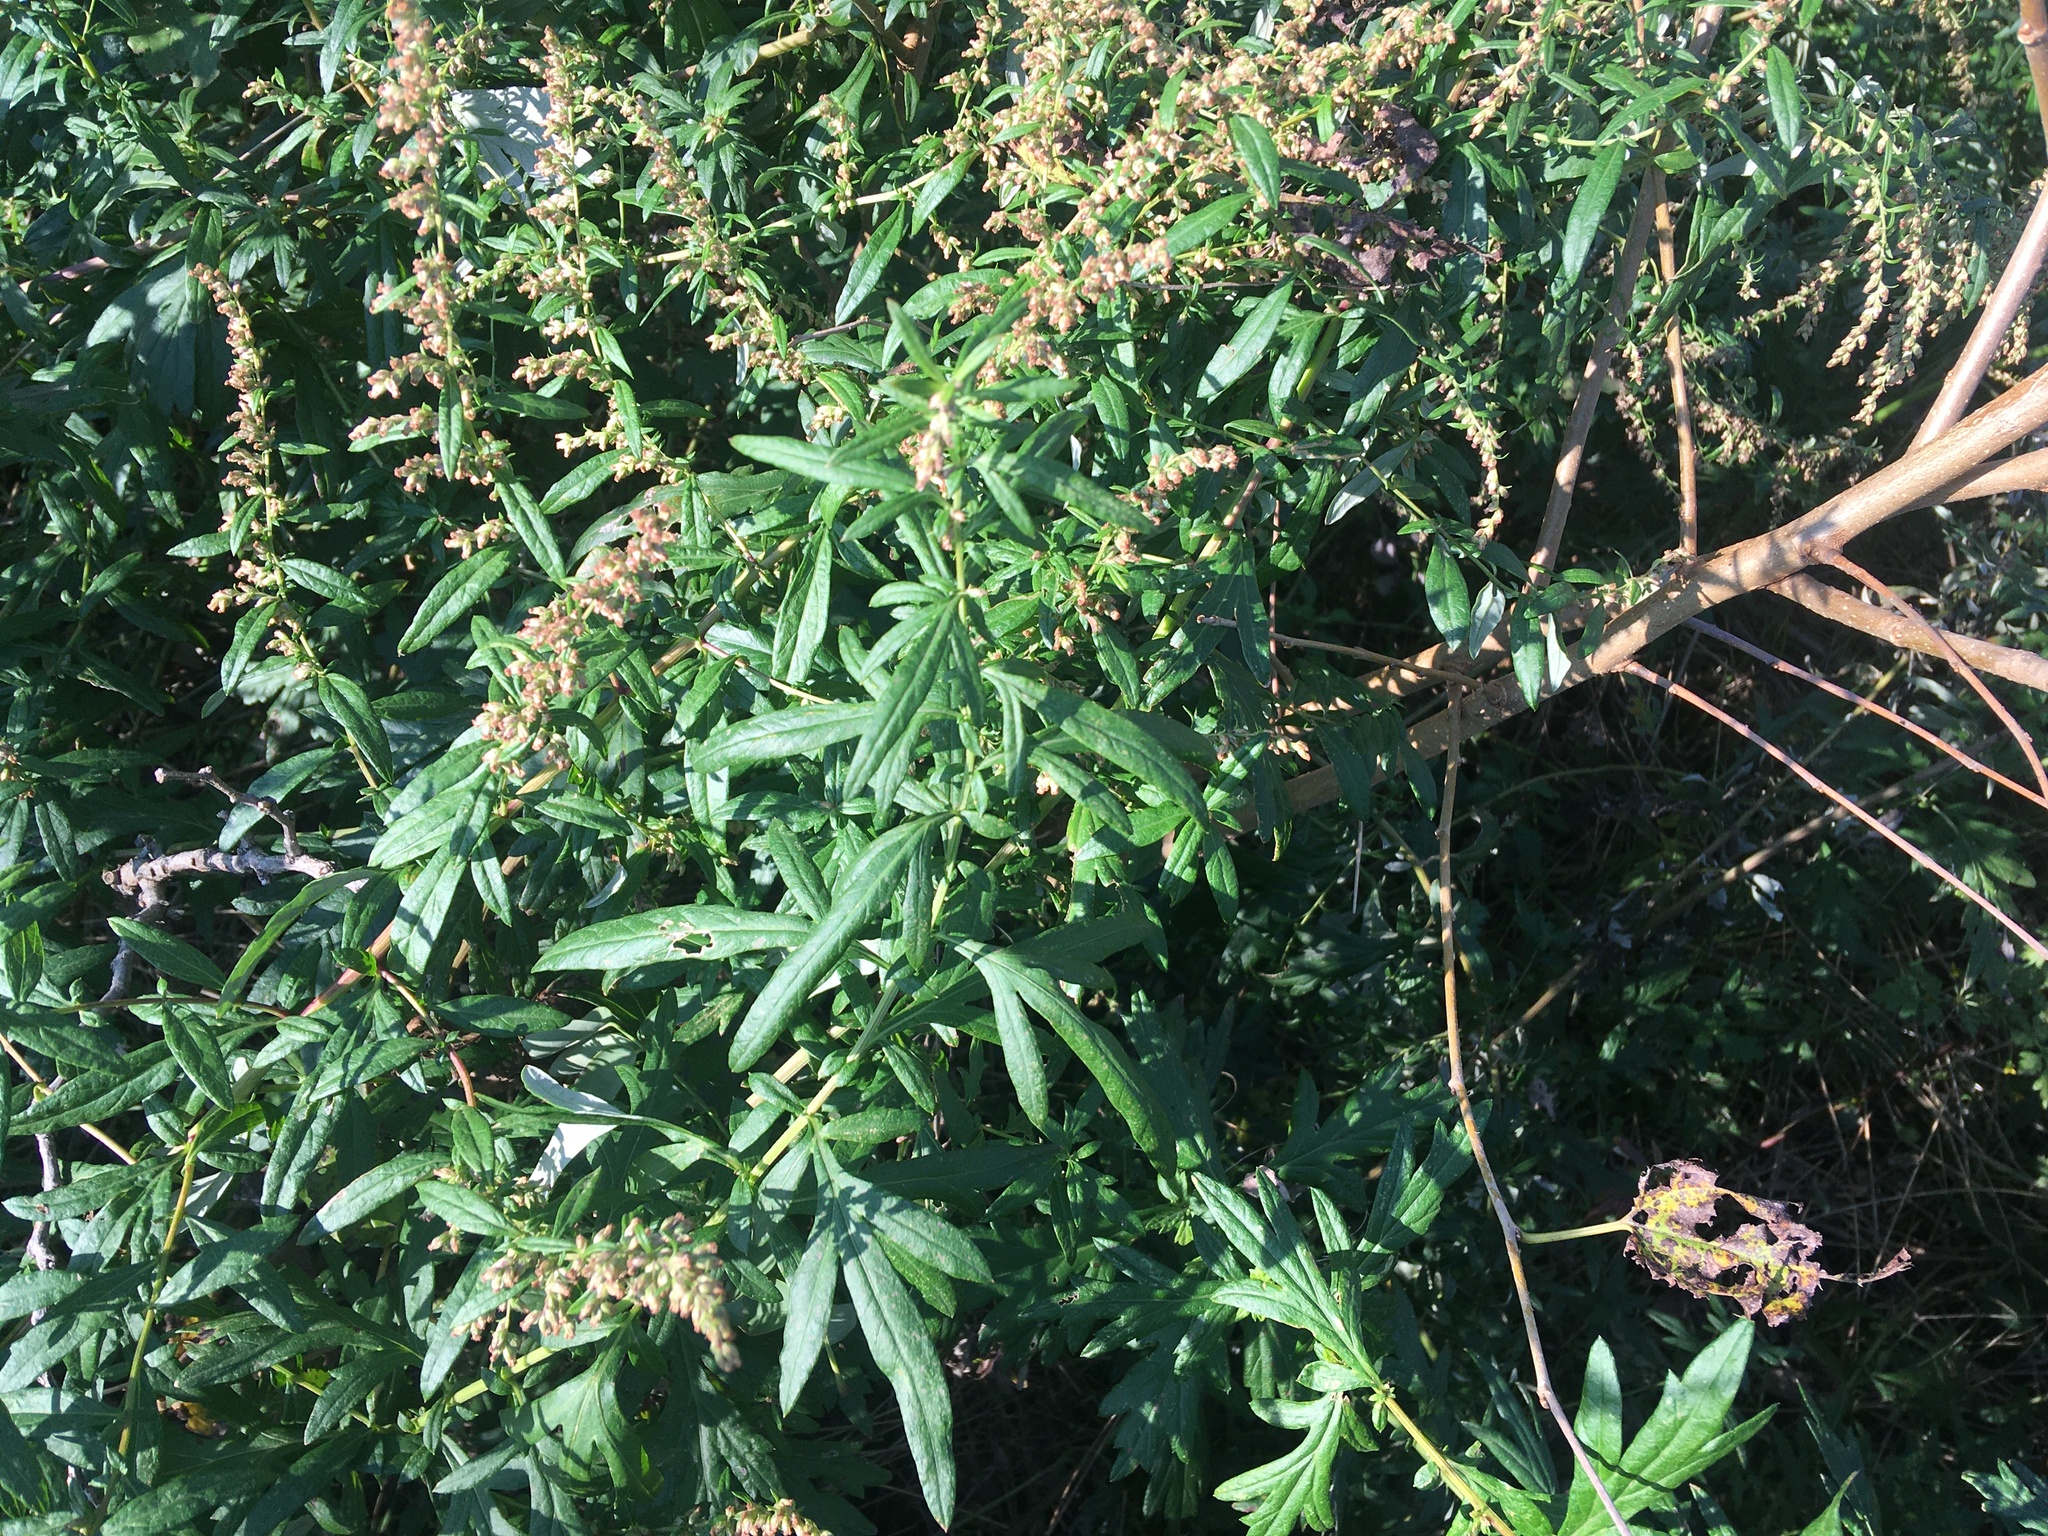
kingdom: Plantae
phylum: Tracheophyta
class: Magnoliopsida
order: Asterales
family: Asteraceae
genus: Artemisia
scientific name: Artemisia vulgaris
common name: Mugwort
